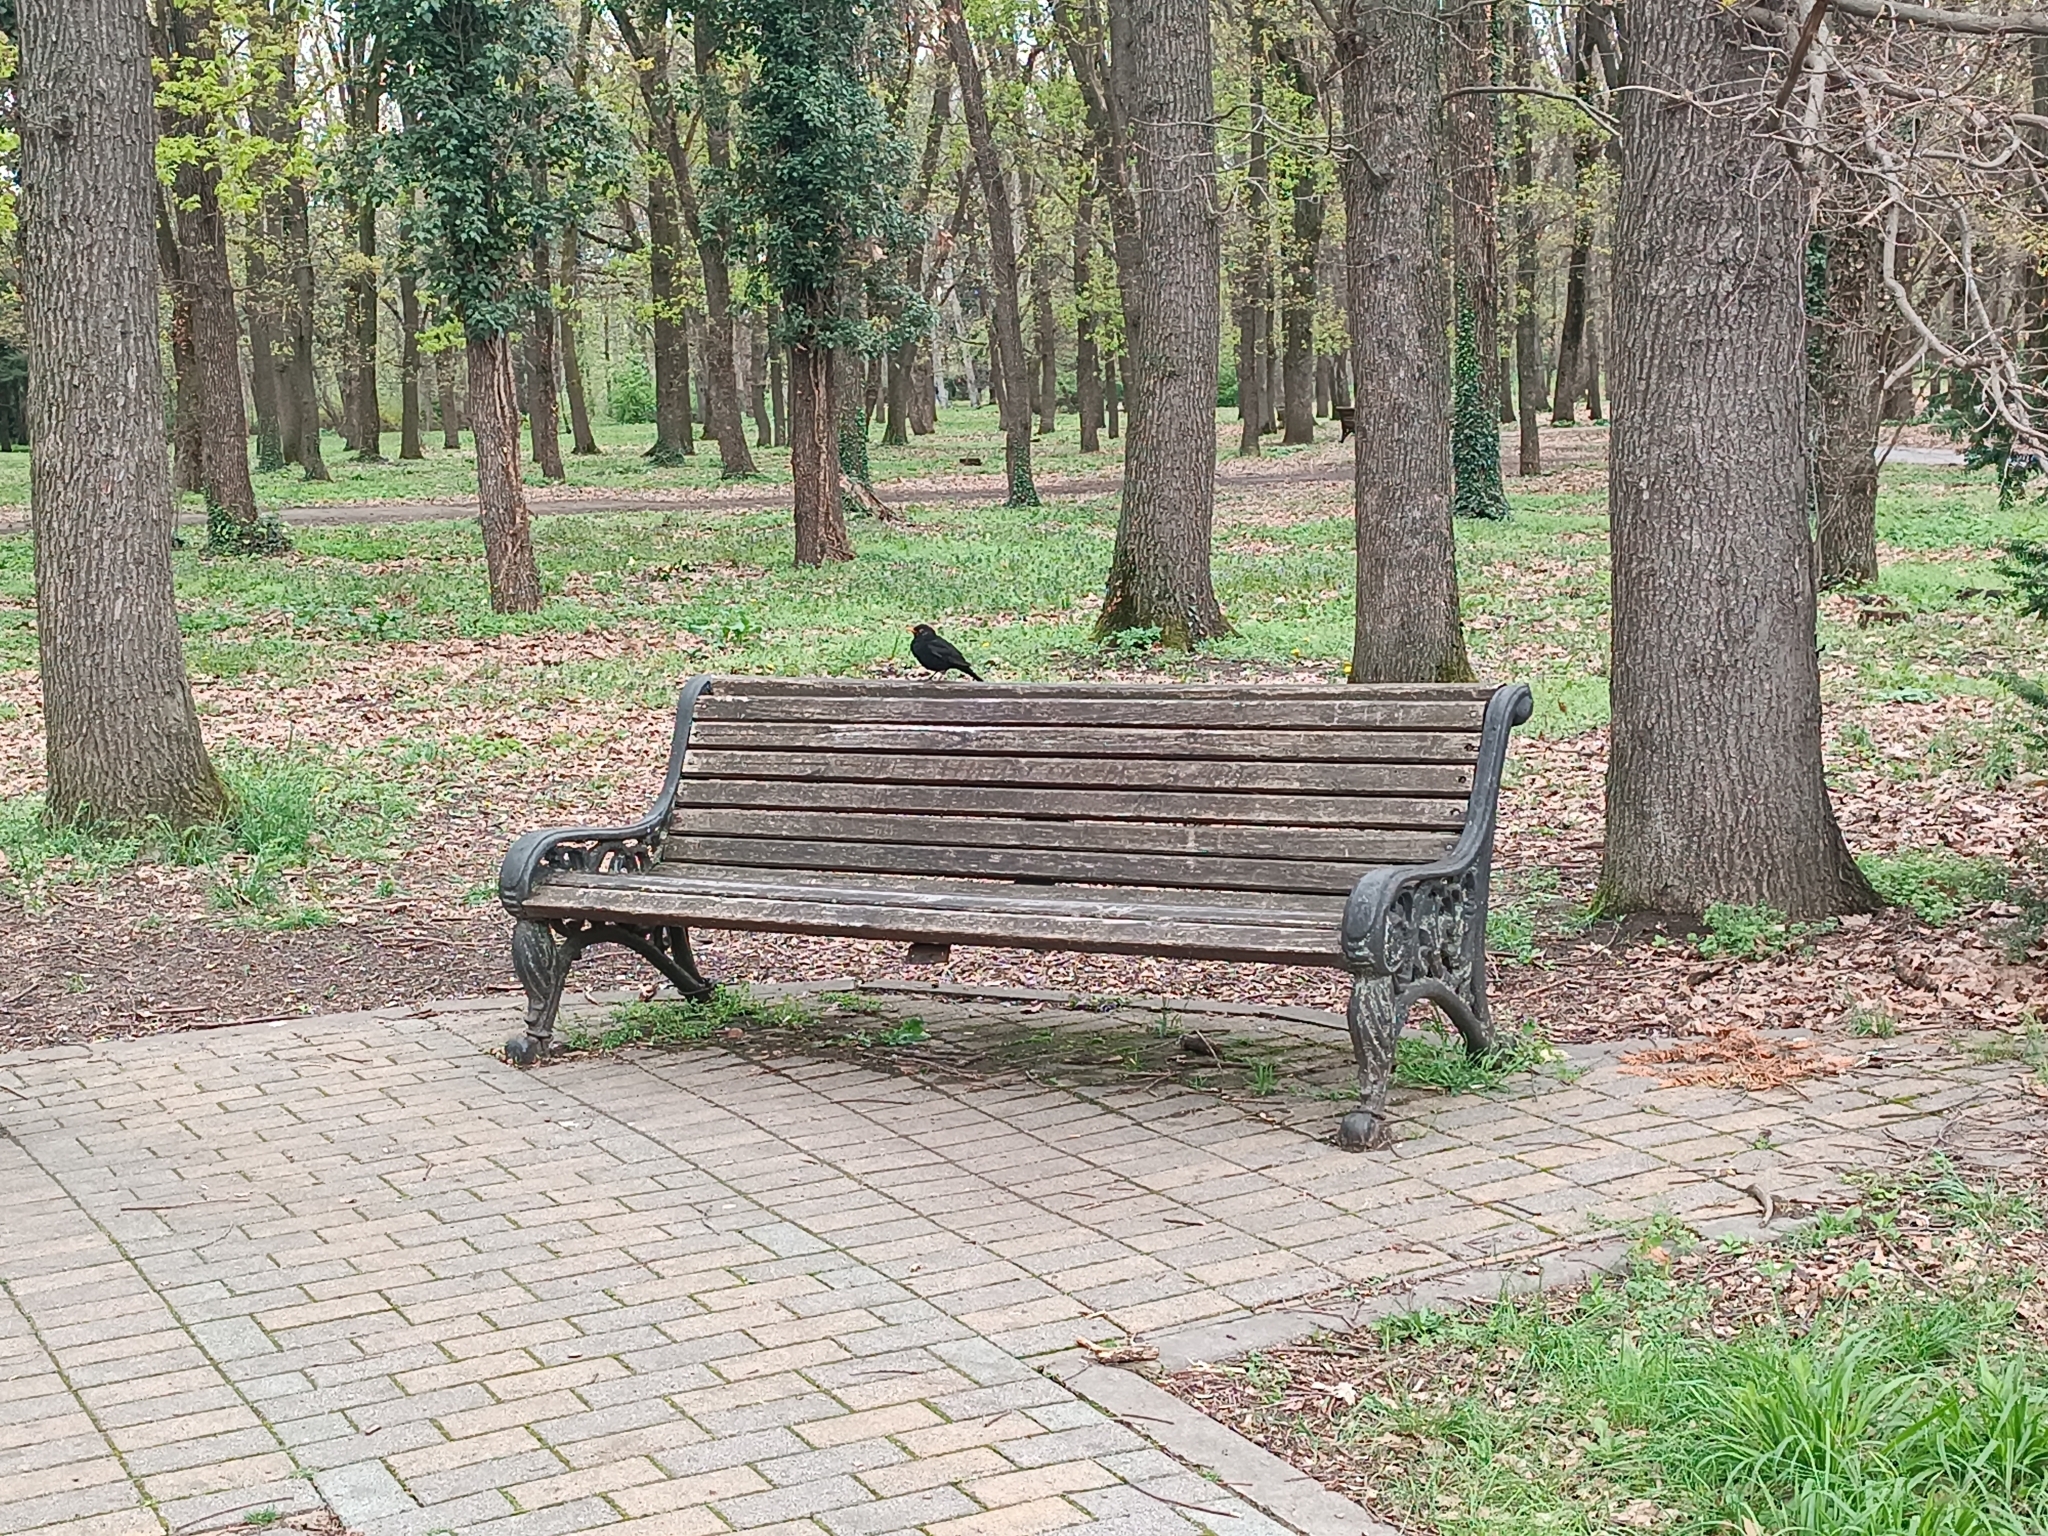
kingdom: Animalia
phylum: Chordata
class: Aves
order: Passeriformes
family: Turdidae
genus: Turdus
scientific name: Turdus merula
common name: Common blackbird
